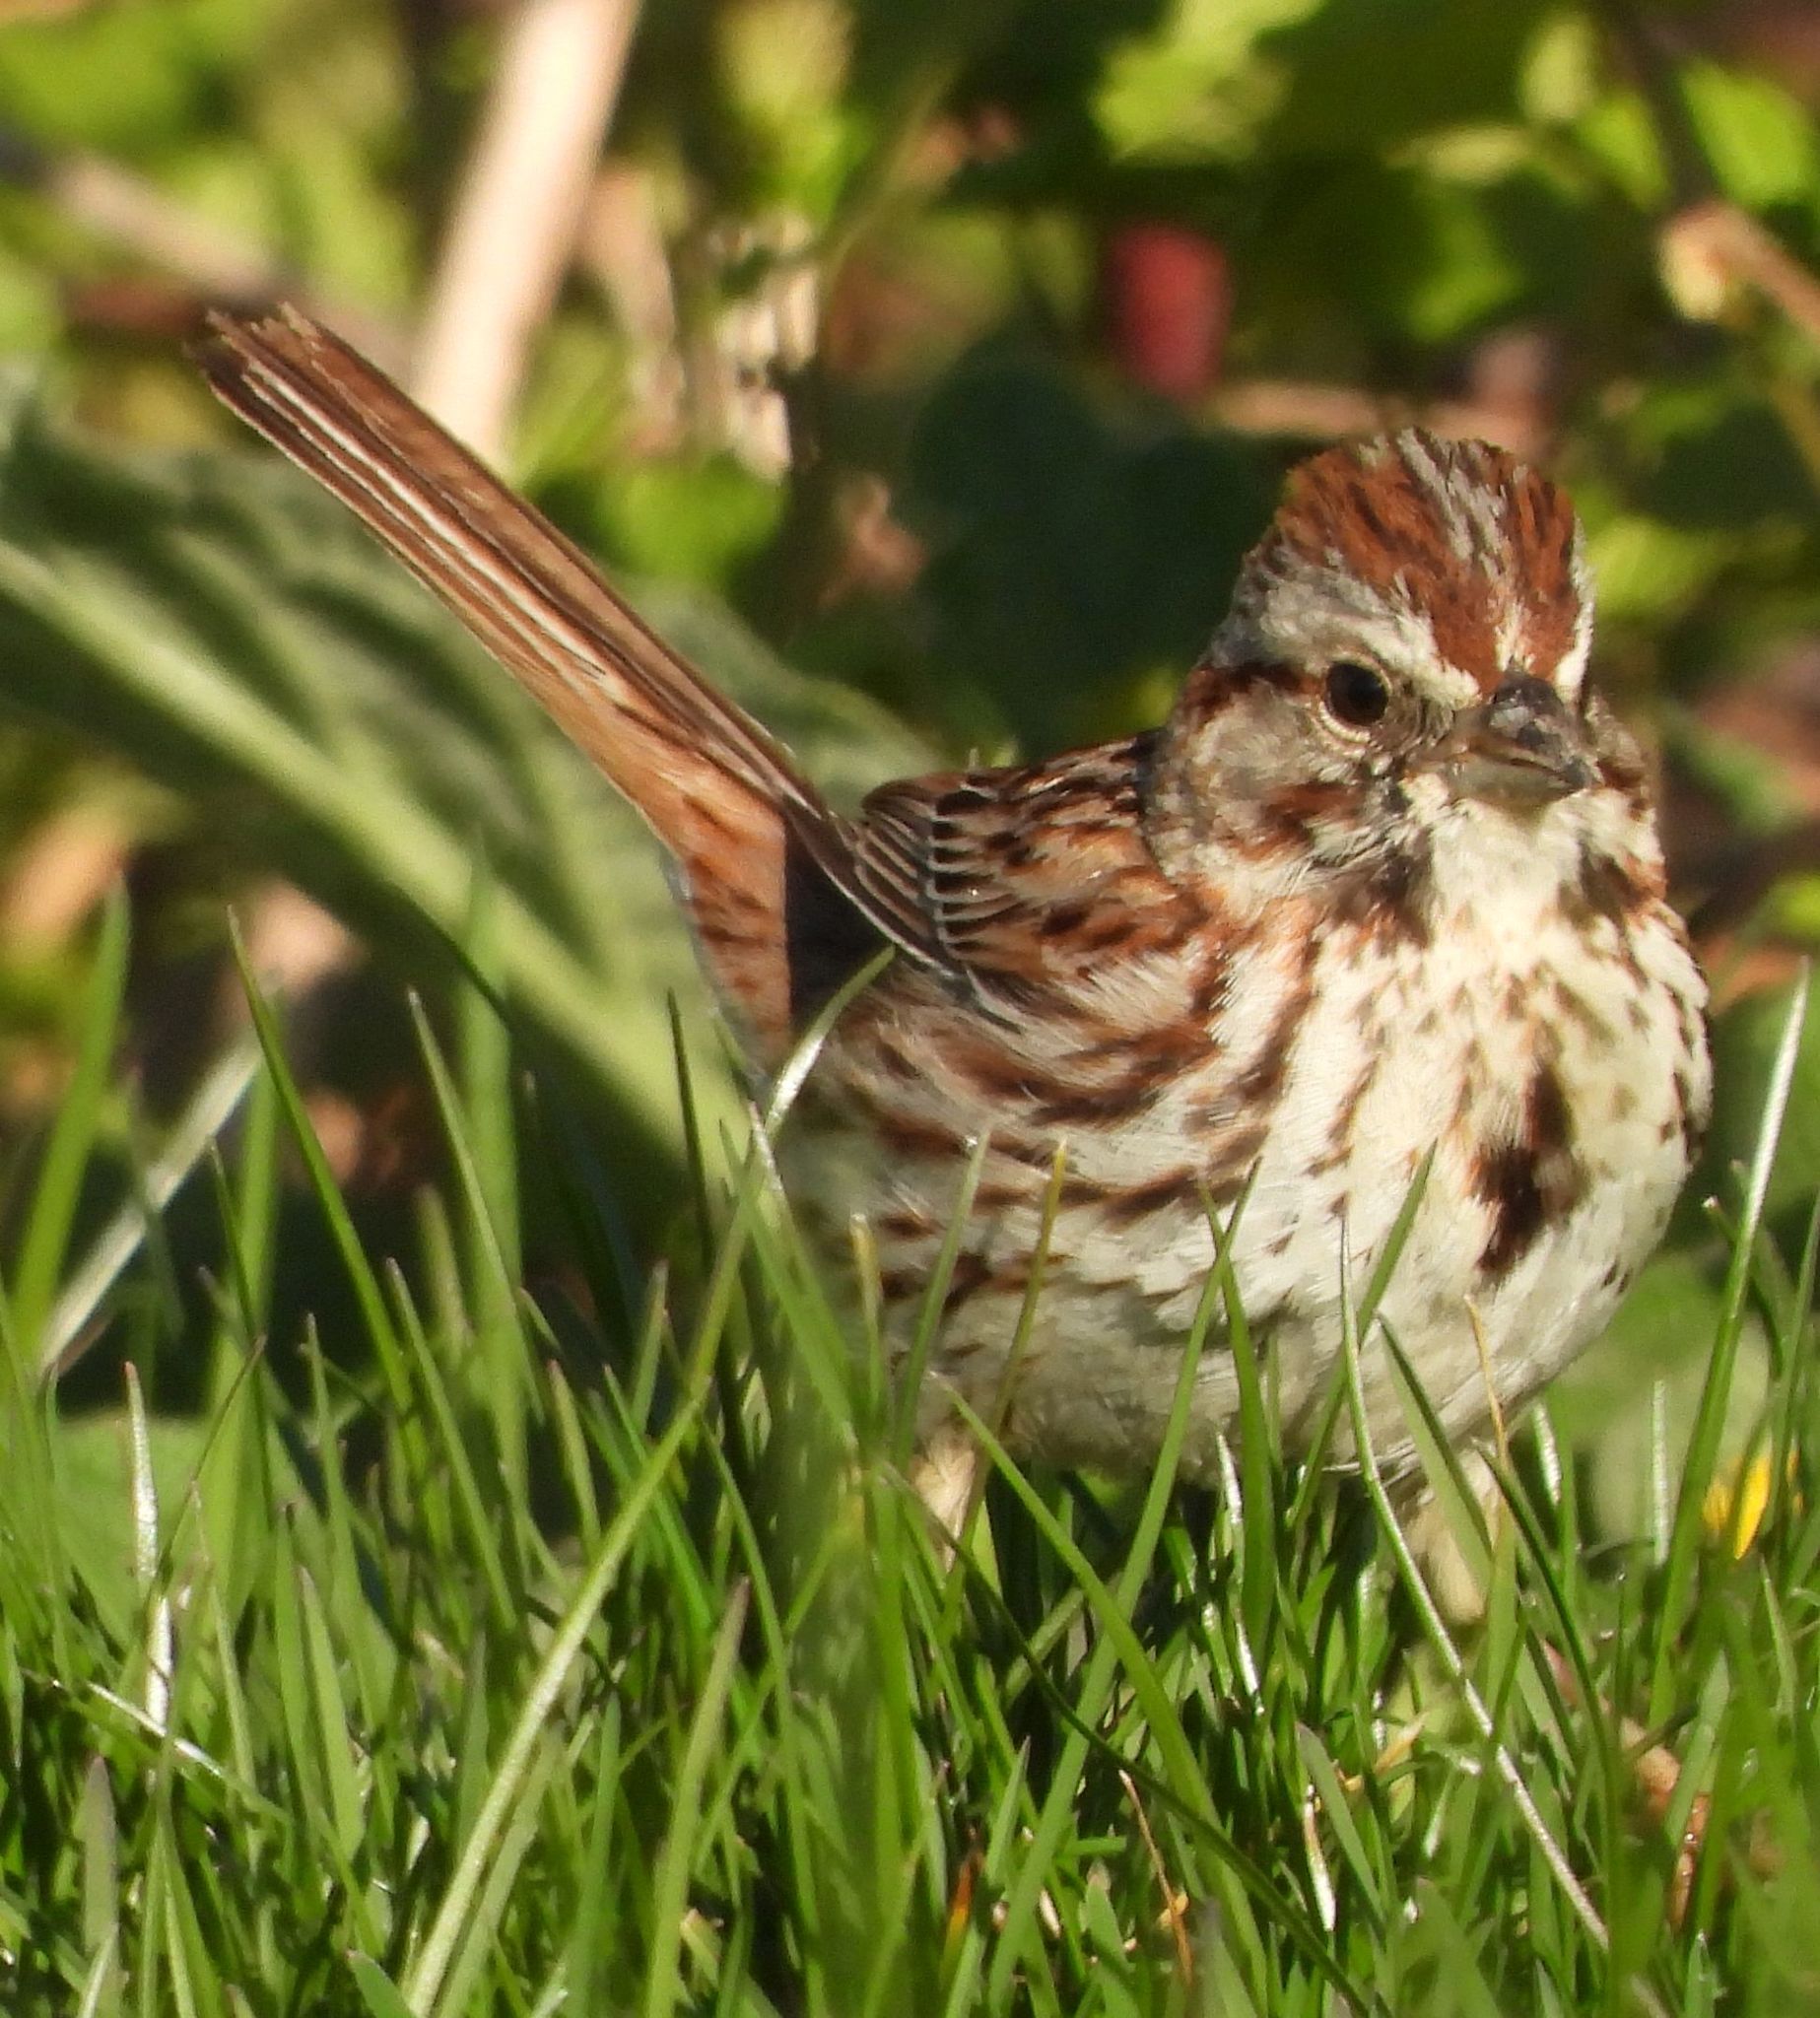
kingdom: Animalia
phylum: Chordata
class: Aves
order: Passeriformes
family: Passerellidae
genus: Melospiza
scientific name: Melospiza melodia
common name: Song sparrow
